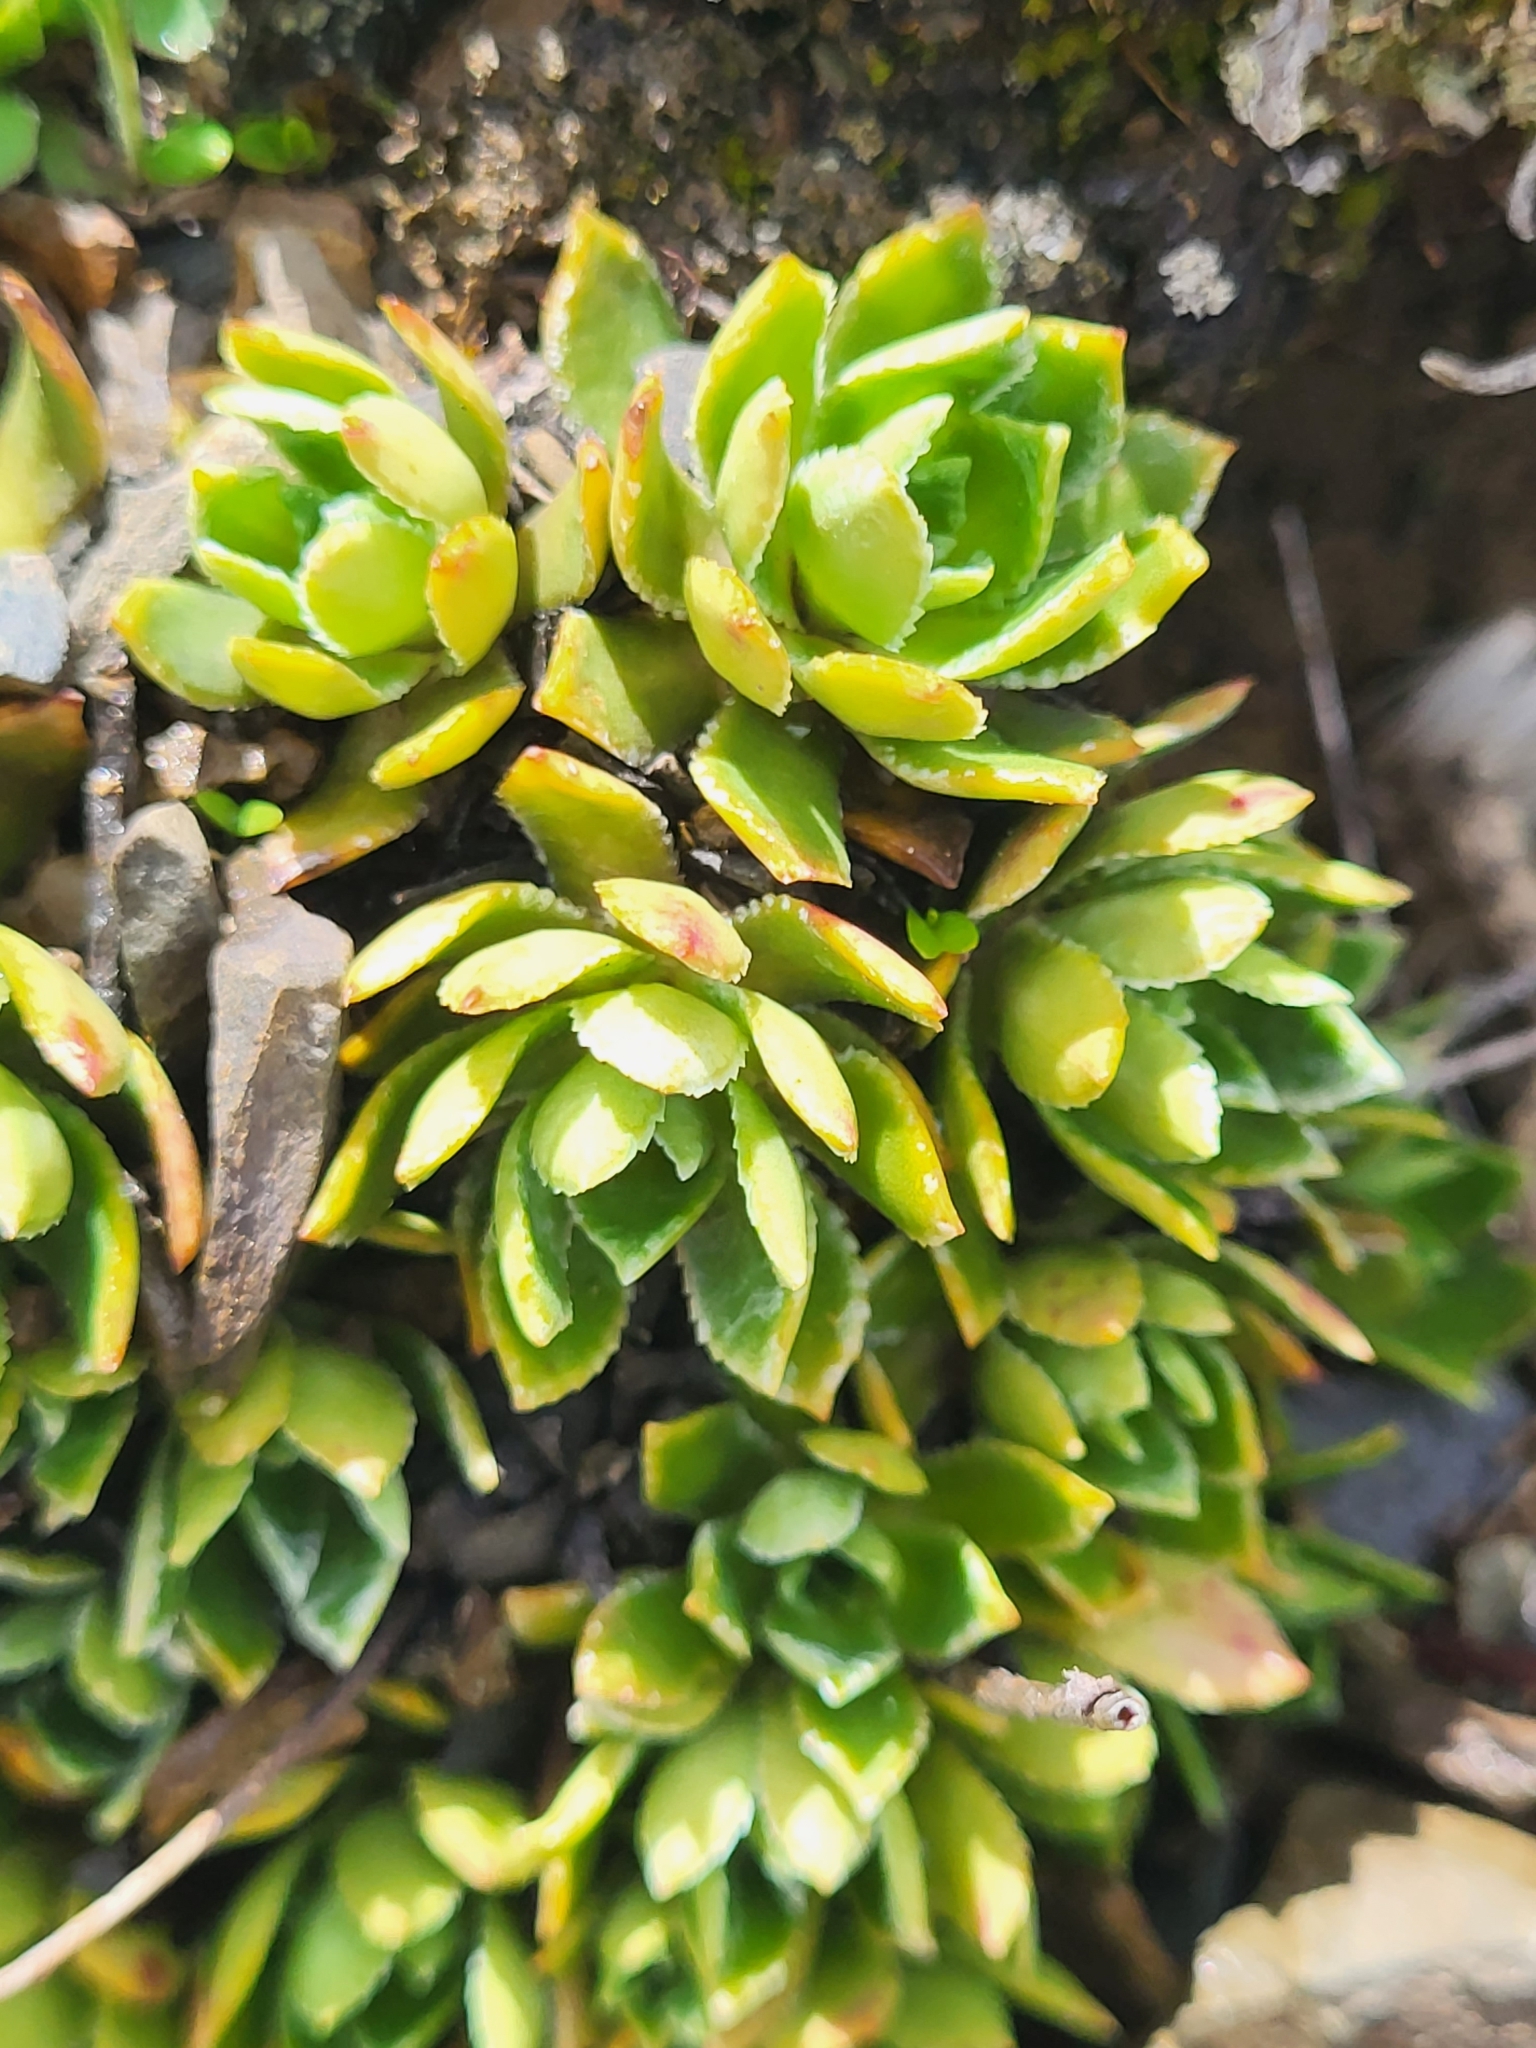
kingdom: Plantae
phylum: Tracheophyta
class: Magnoliopsida
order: Saxifragales
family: Saxifragaceae
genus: Saxifraga
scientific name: Saxifraga kolenatiana
